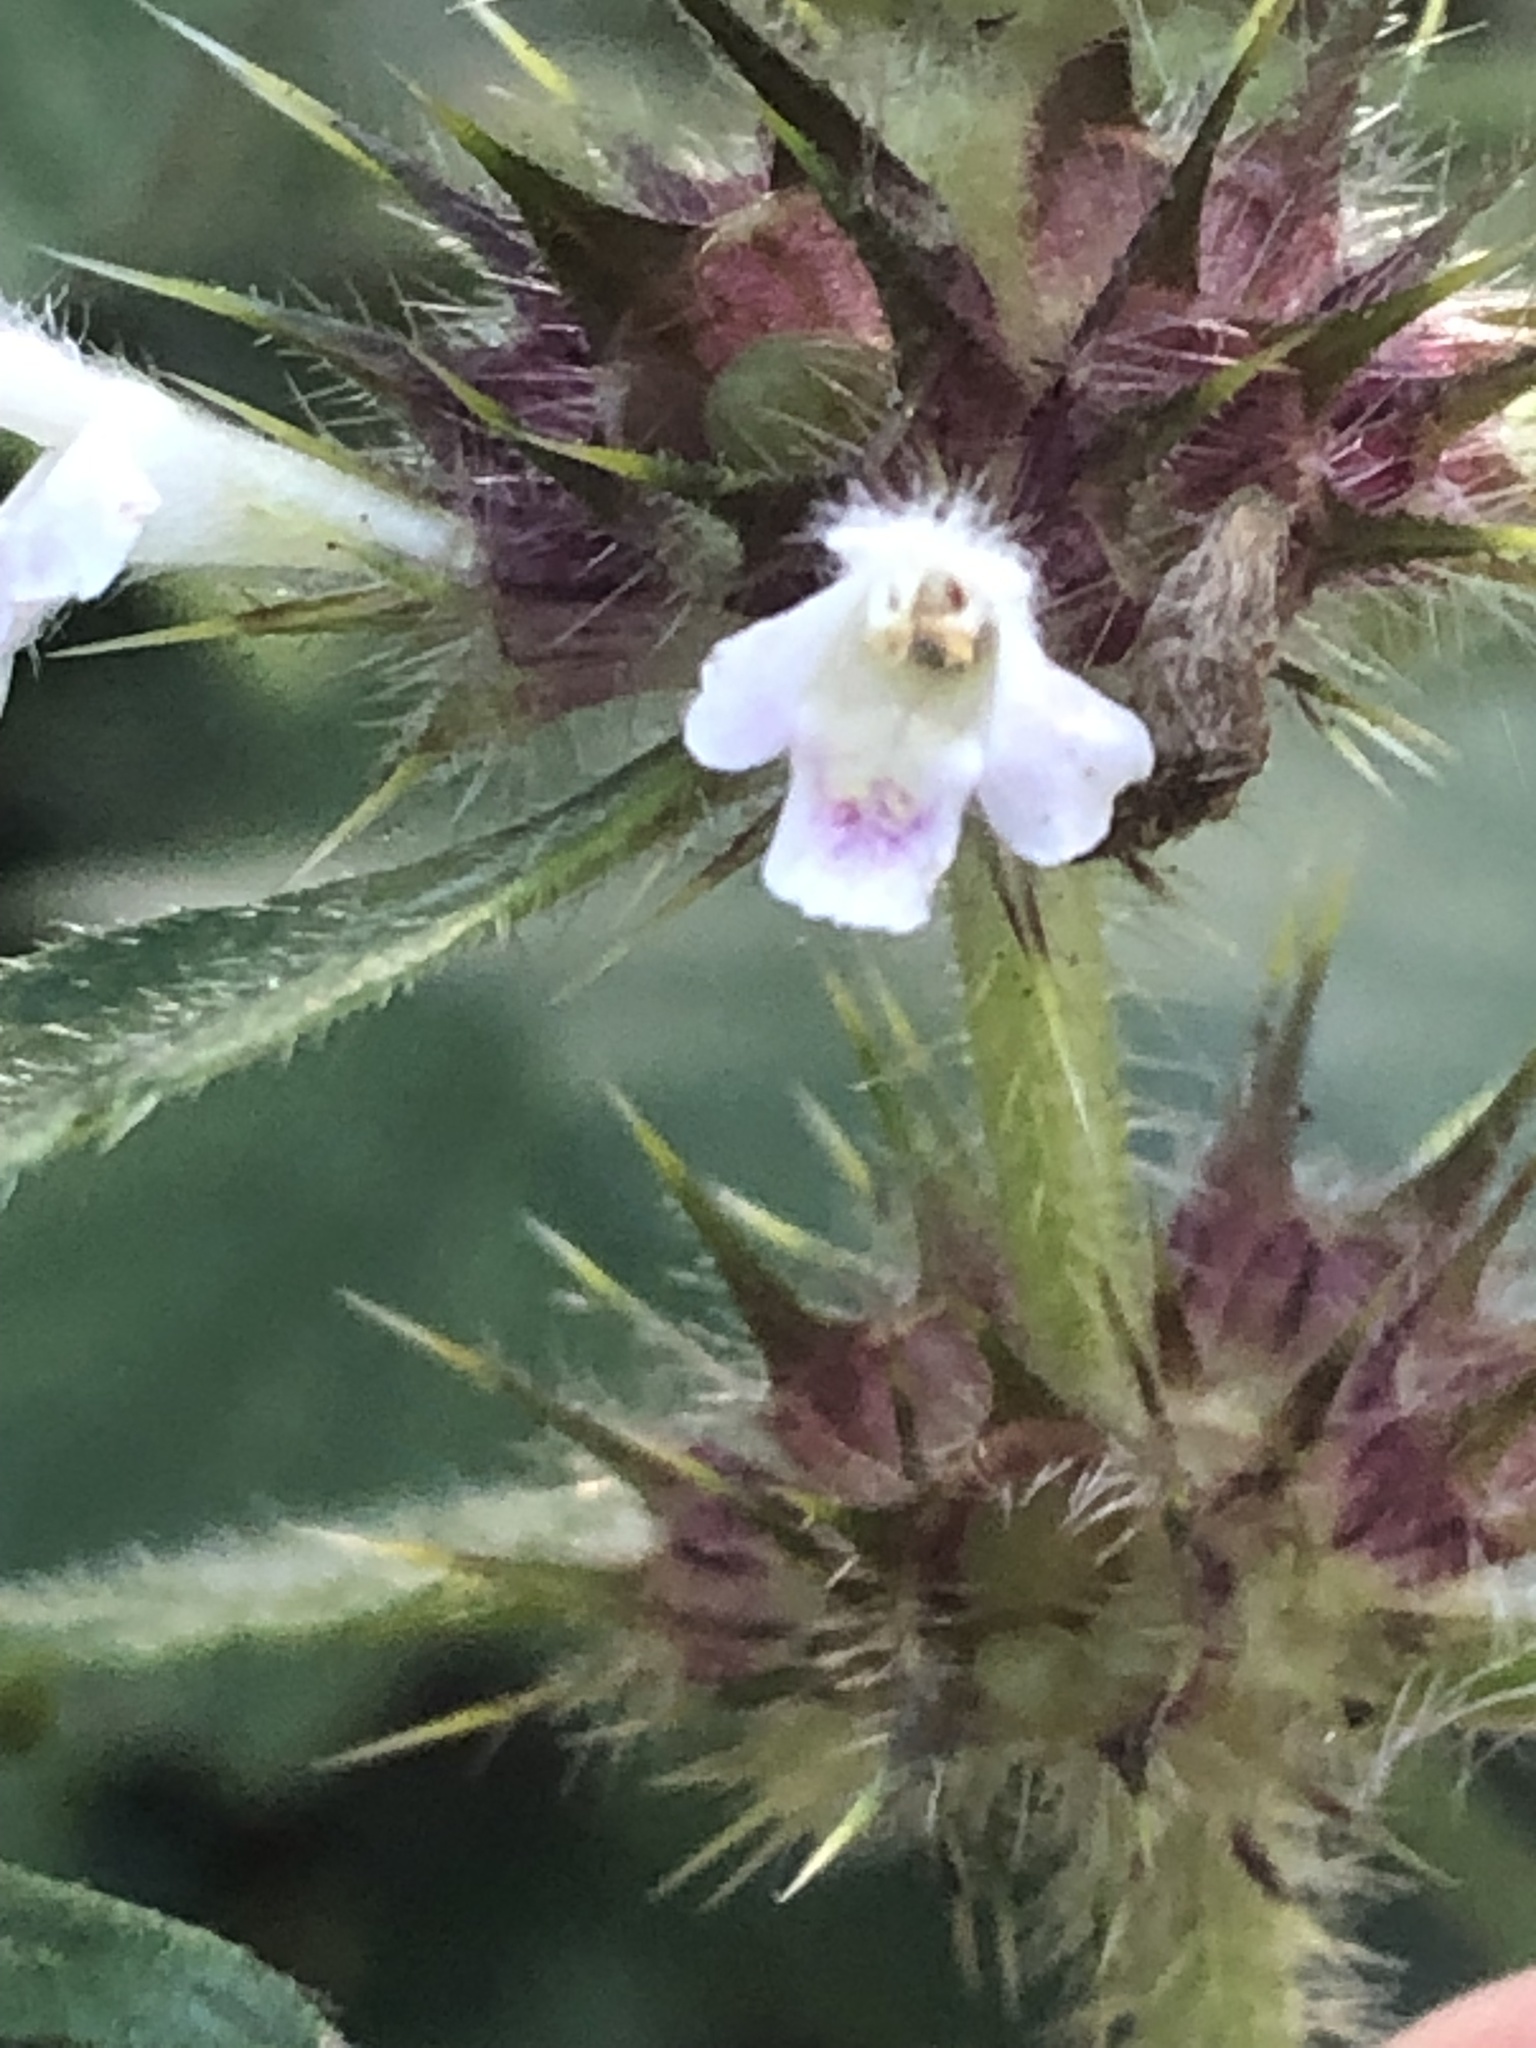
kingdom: Plantae
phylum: Tracheophyta
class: Magnoliopsida
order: Lamiales
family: Lamiaceae
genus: Galeopsis
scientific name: Galeopsis tetrahit
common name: Common hemp-nettle
